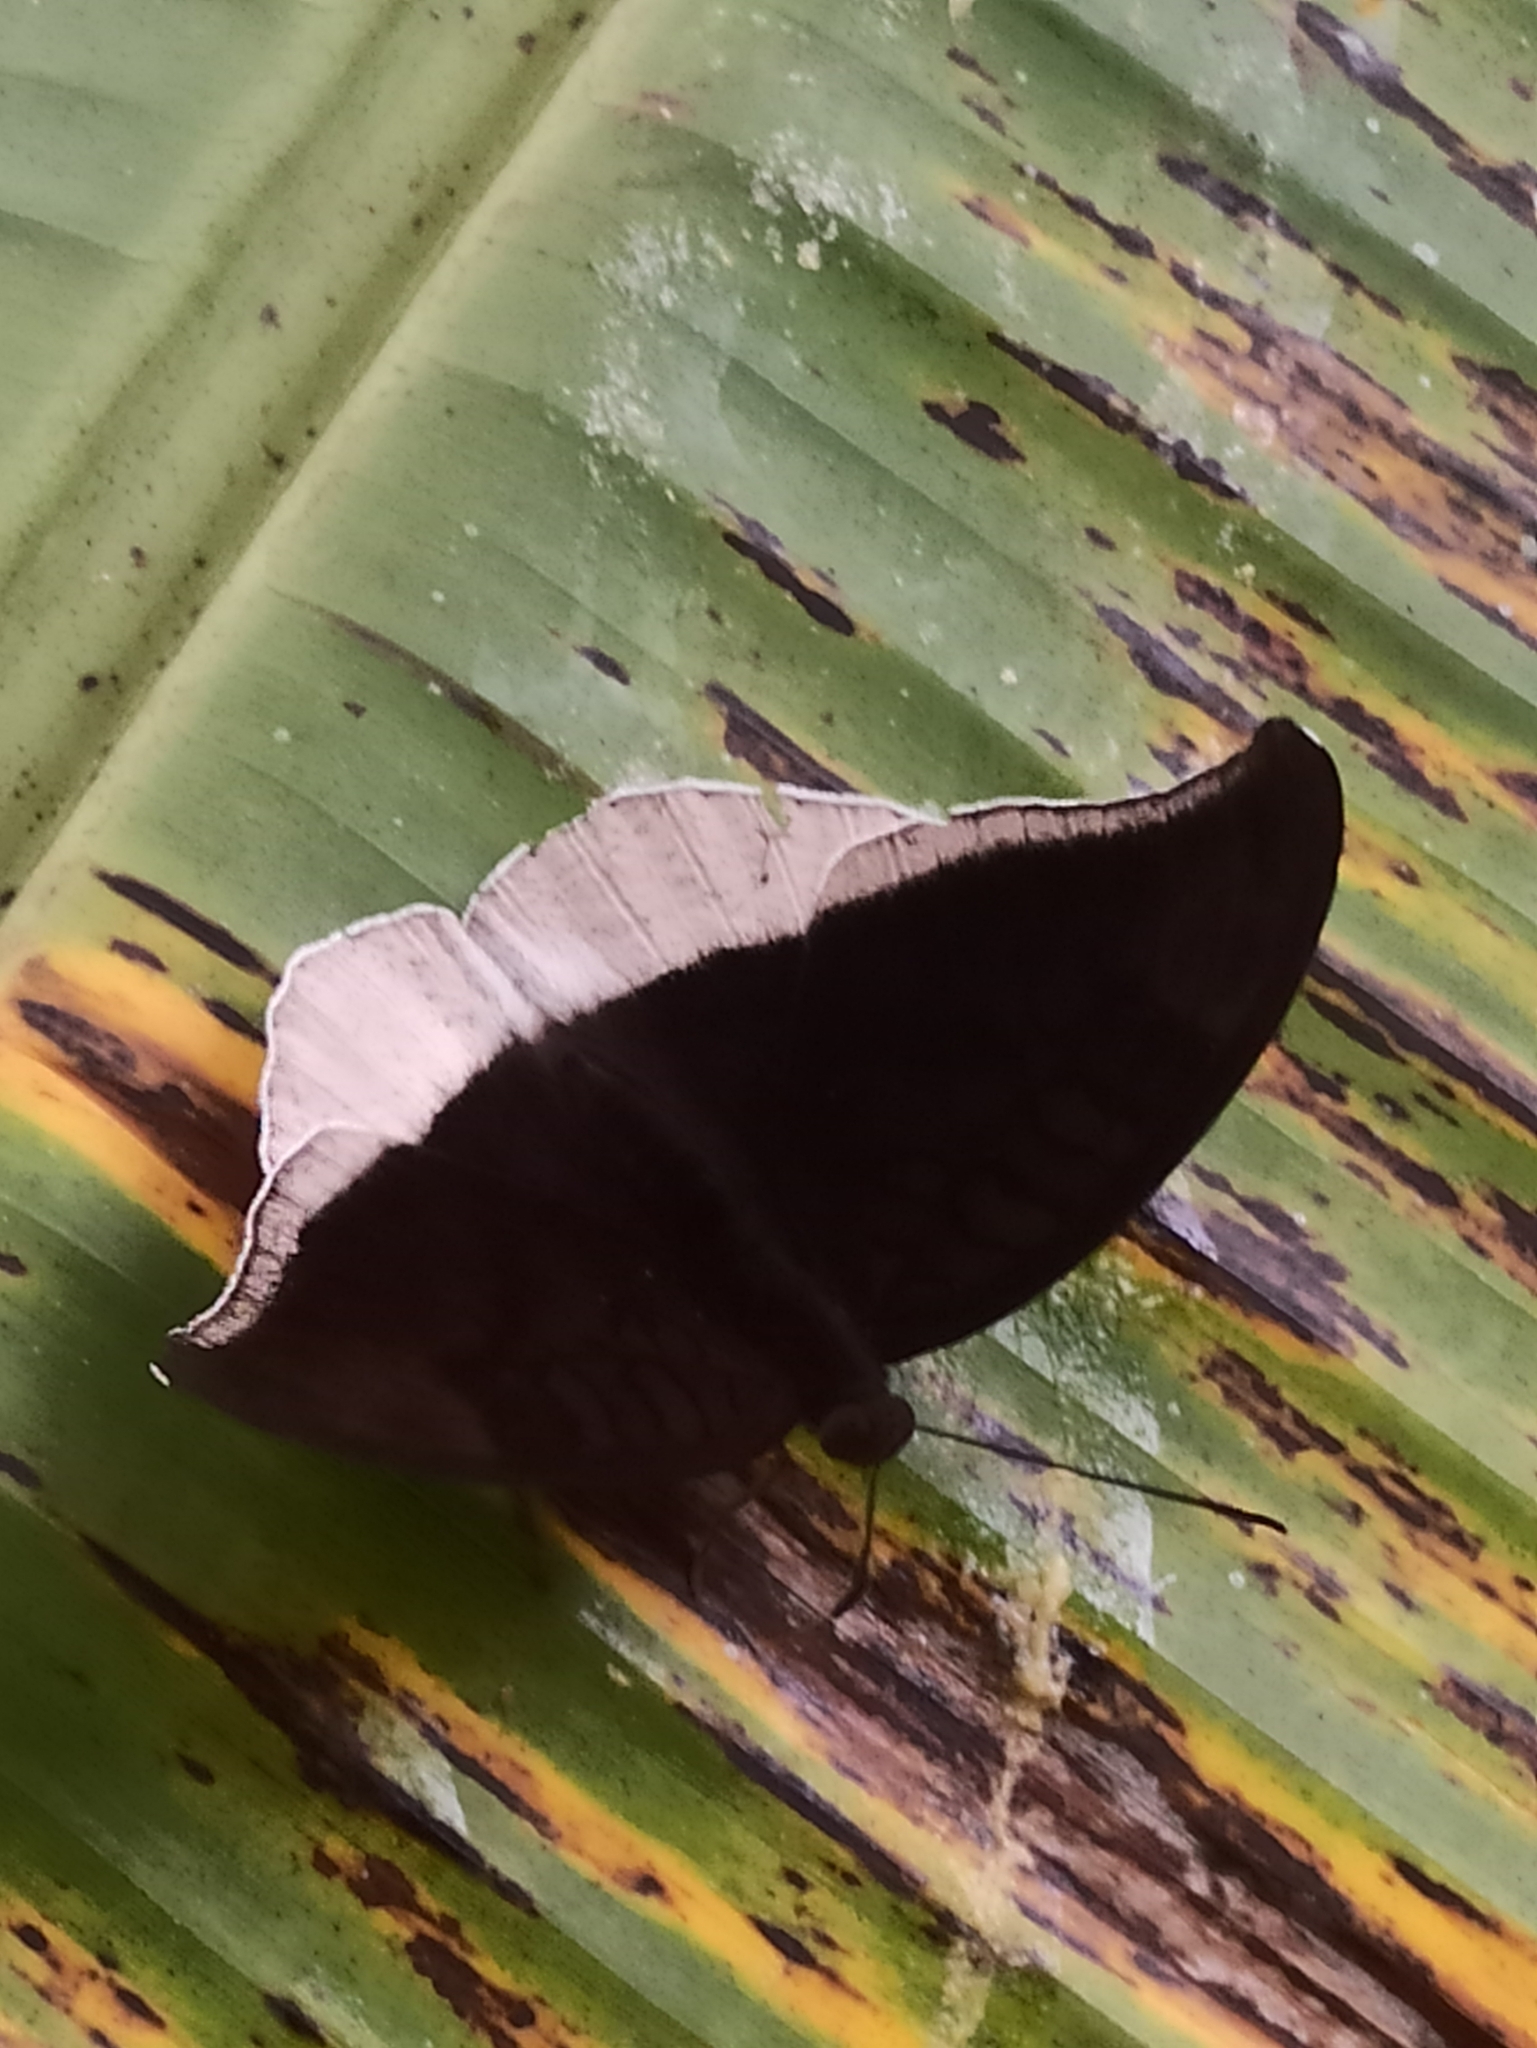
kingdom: Animalia
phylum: Arthropoda
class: Insecta
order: Lepidoptera
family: Nymphalidae
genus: Tanaecia
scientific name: Tanaecia lepidea
